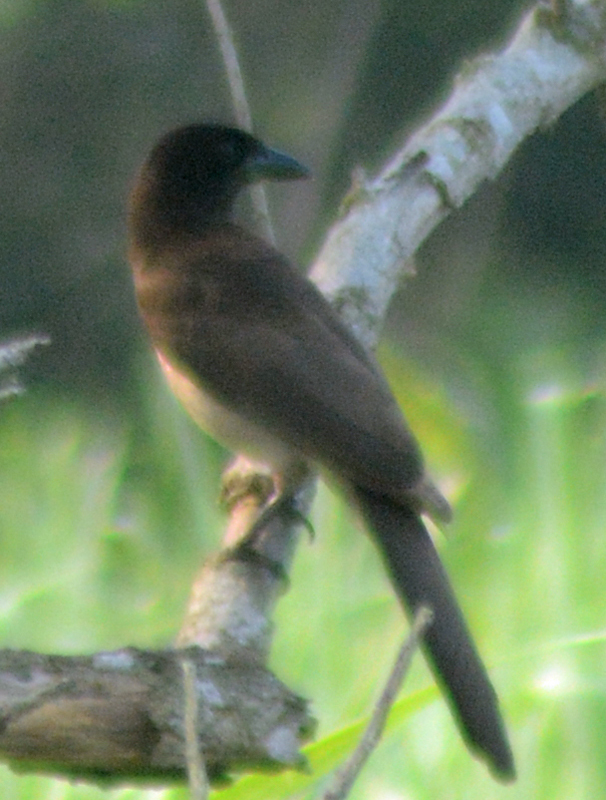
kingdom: Animalia
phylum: Chordata
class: Aves
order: Passeriformes
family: Corvidae
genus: Psilorhinus
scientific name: Psilorhinus morio
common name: Brown jay
